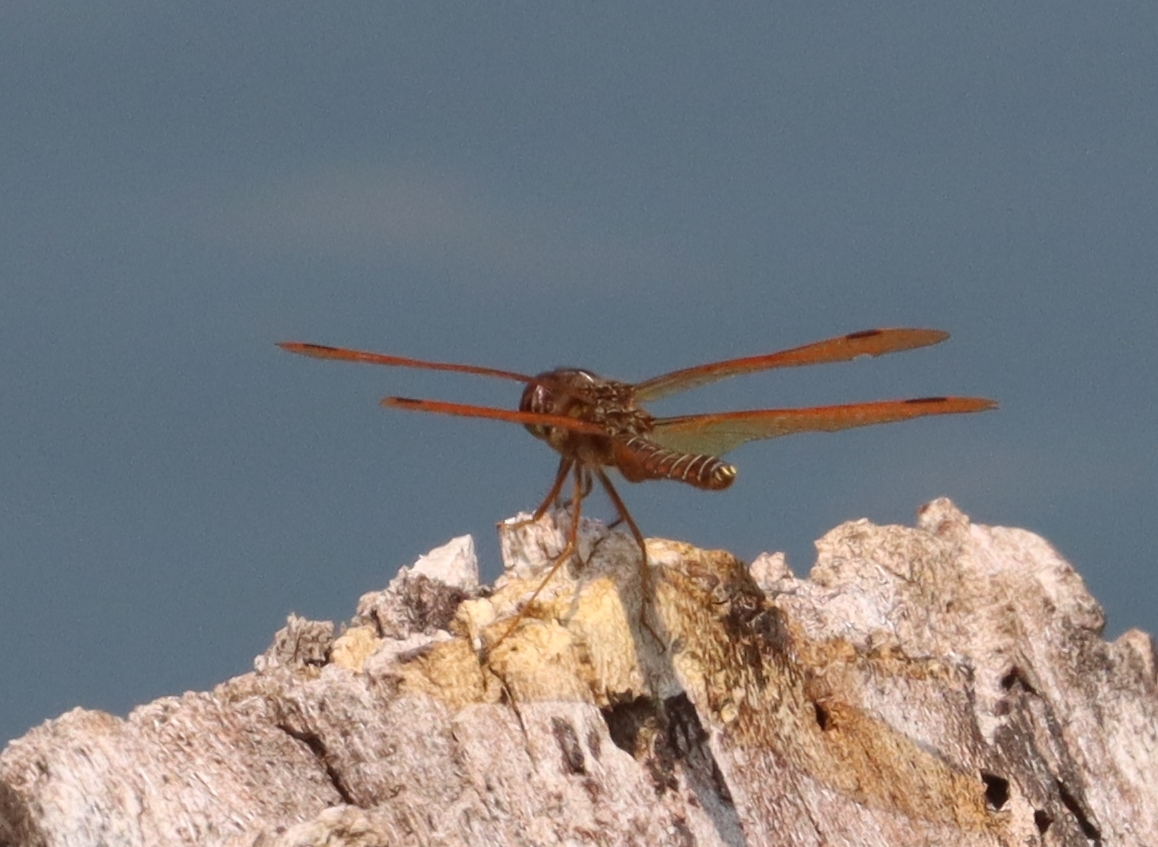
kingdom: Animalia
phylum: Arthropoda
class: Insecta
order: Odonata
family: Libellulidae
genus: Perithemis
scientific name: Perithemis tenera
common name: Eastern amberwing
